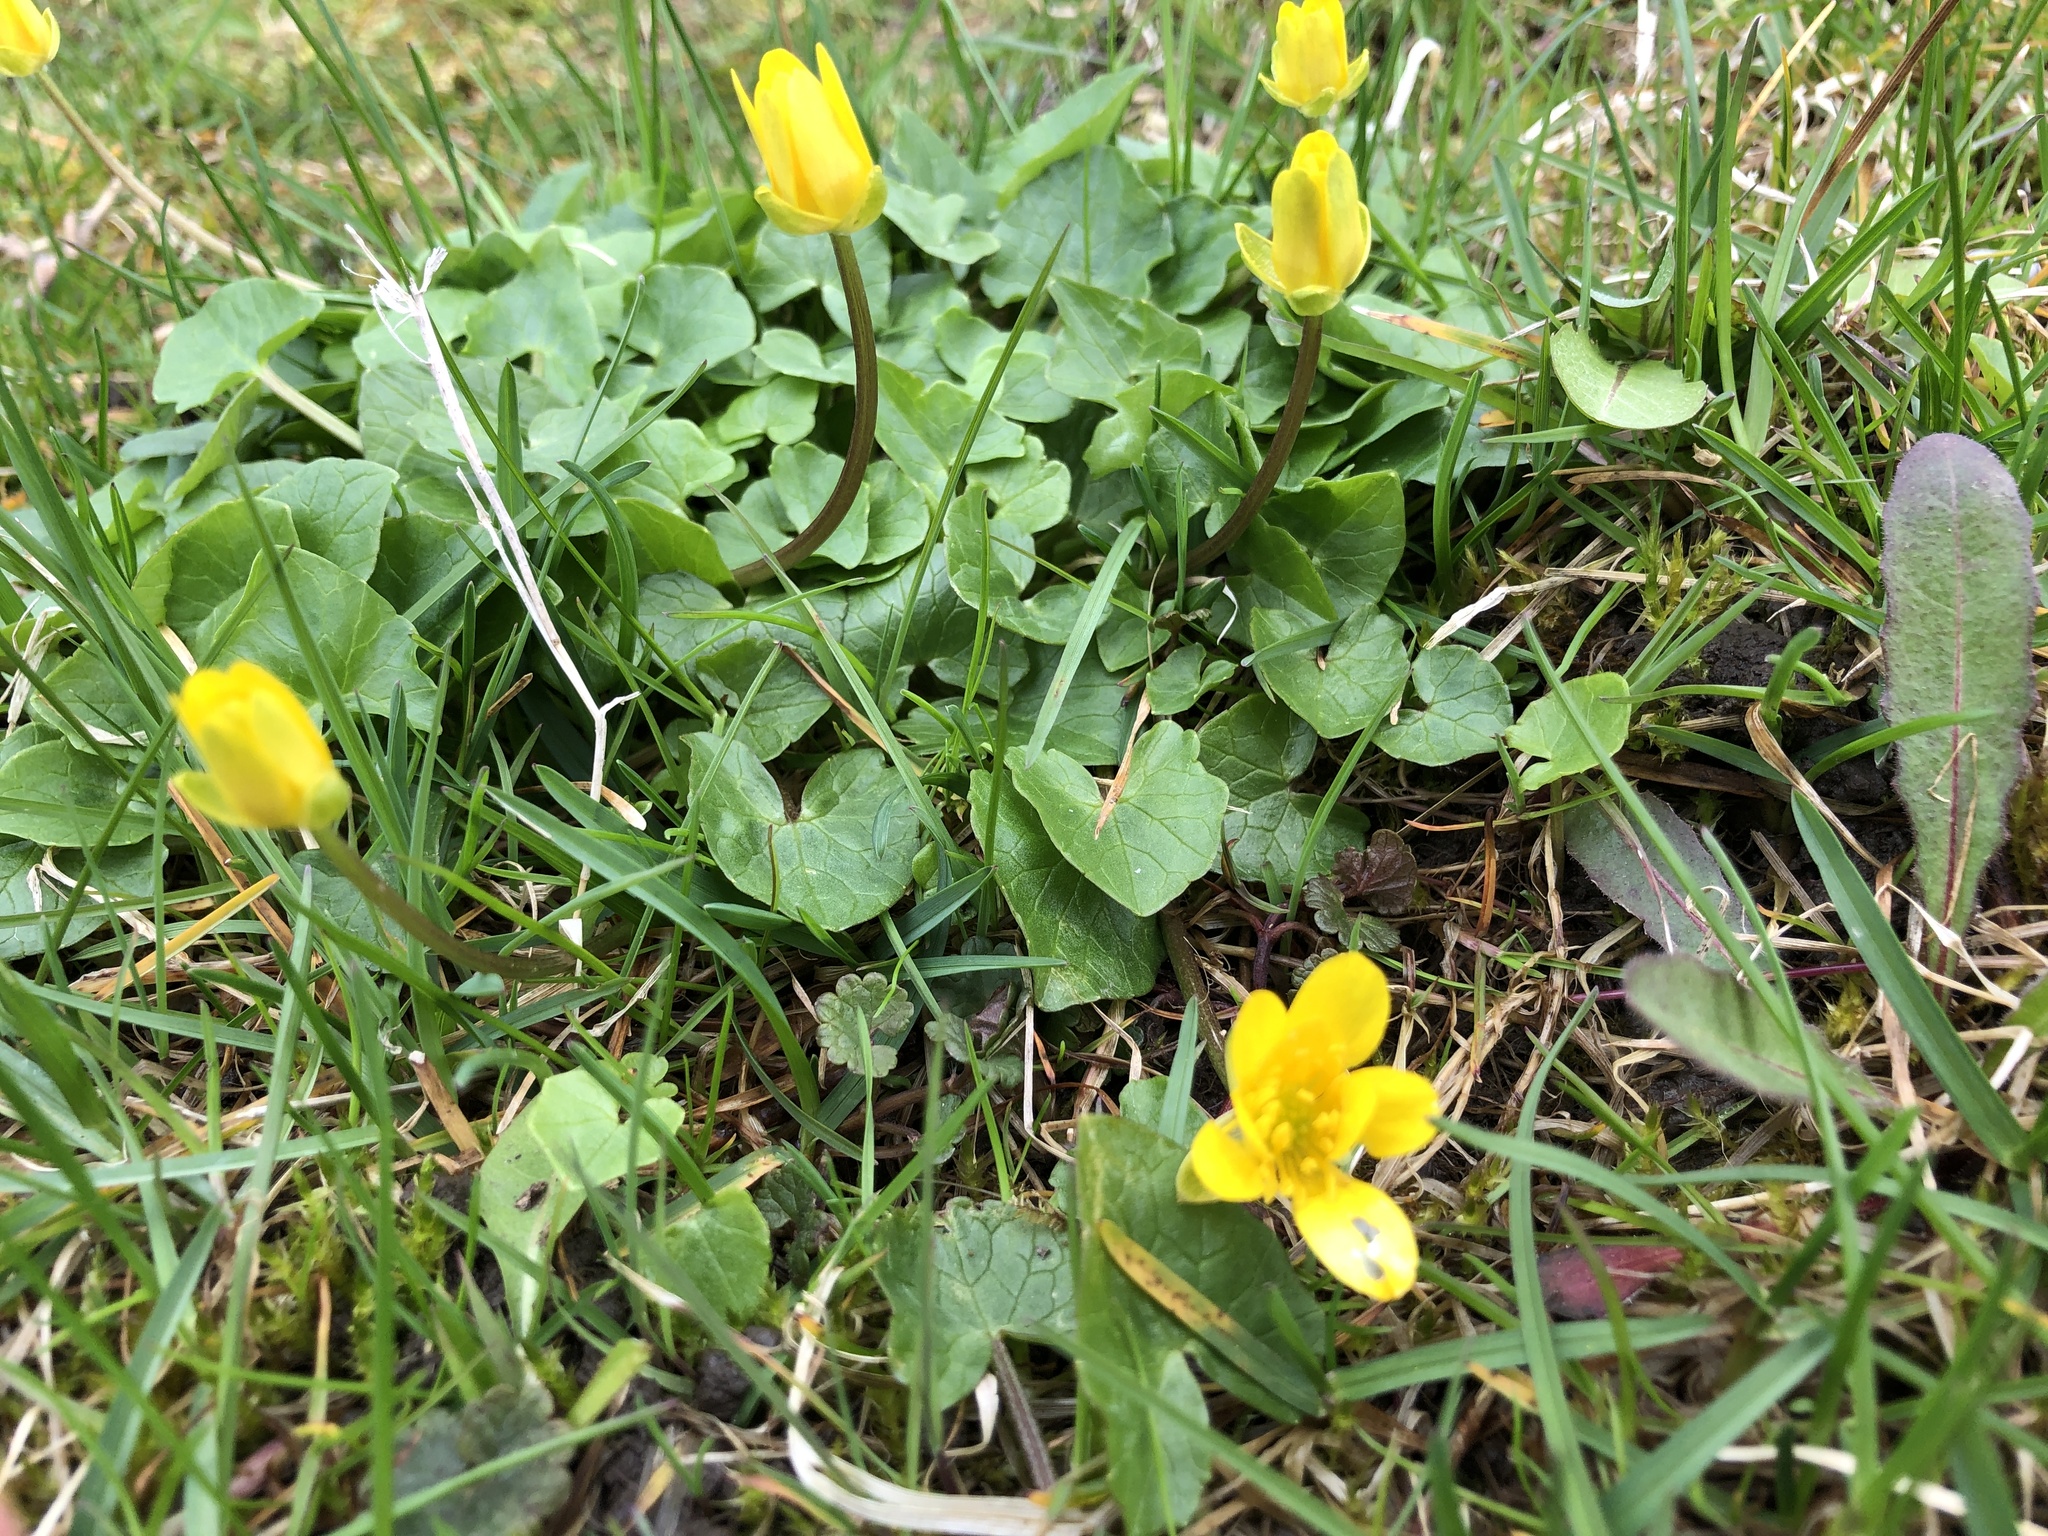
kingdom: Plantae
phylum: Tracheophyta
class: Magnoliopsida
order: Ranunculales
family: Ranunculaceae
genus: Ficaria
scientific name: Ficaria verna
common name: Lesser celandine
